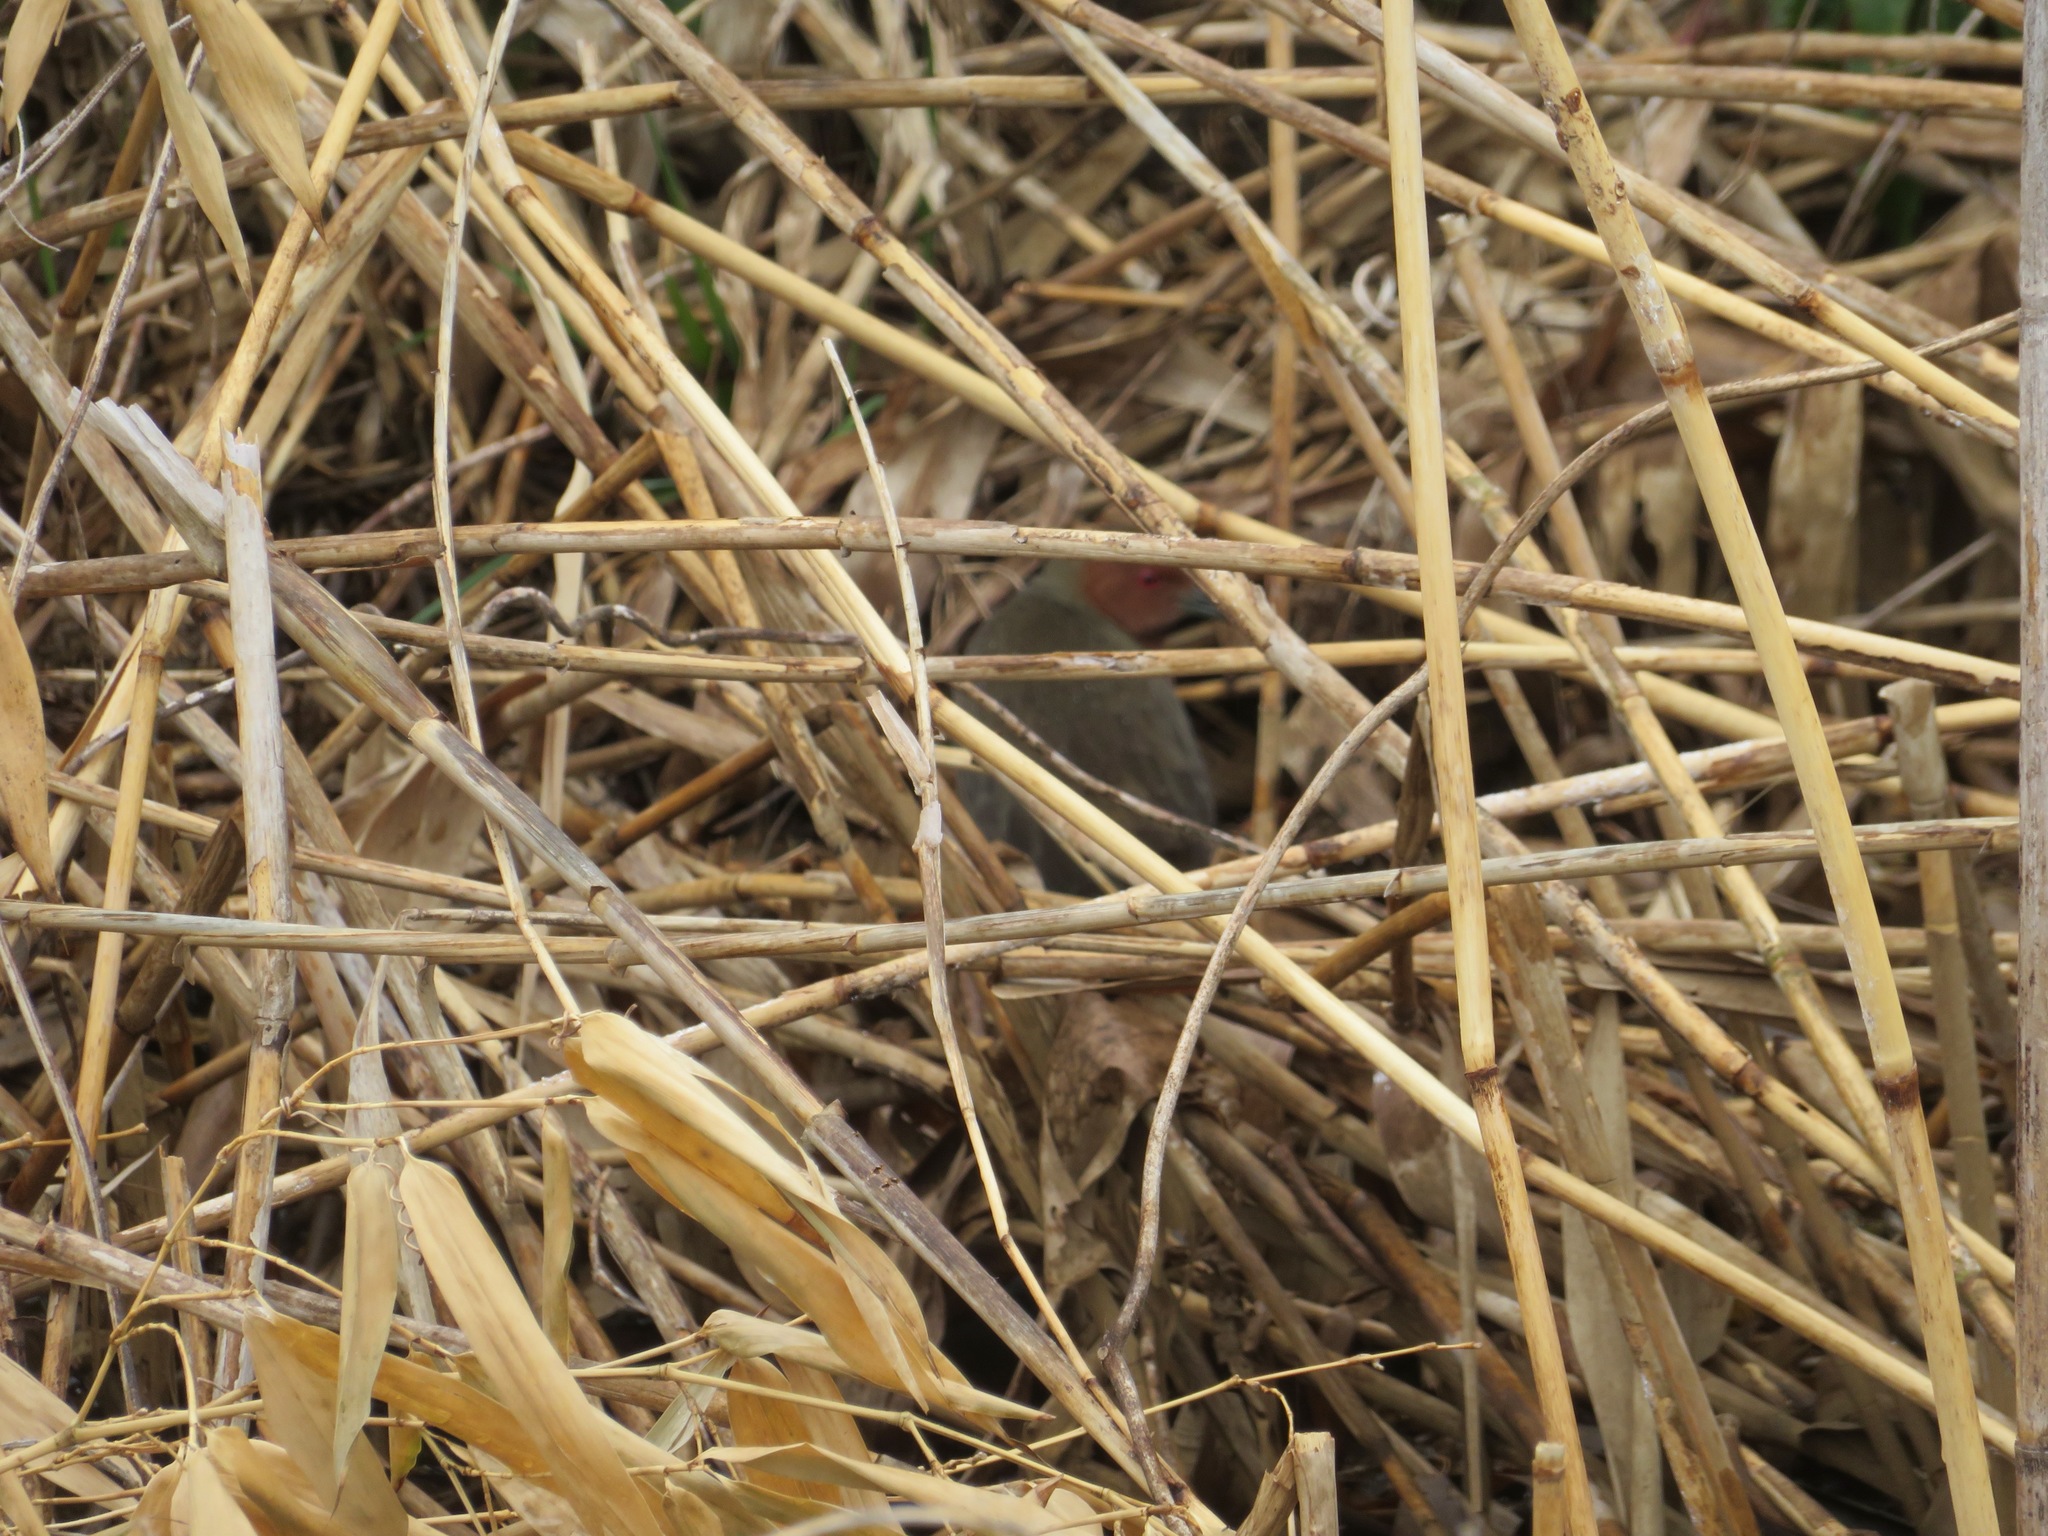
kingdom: Animalia
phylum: Chordata
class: Aves
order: Gruiformes
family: Rallidae
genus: Porzana
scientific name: Porzana fusca
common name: Ruddy-breasted crake
